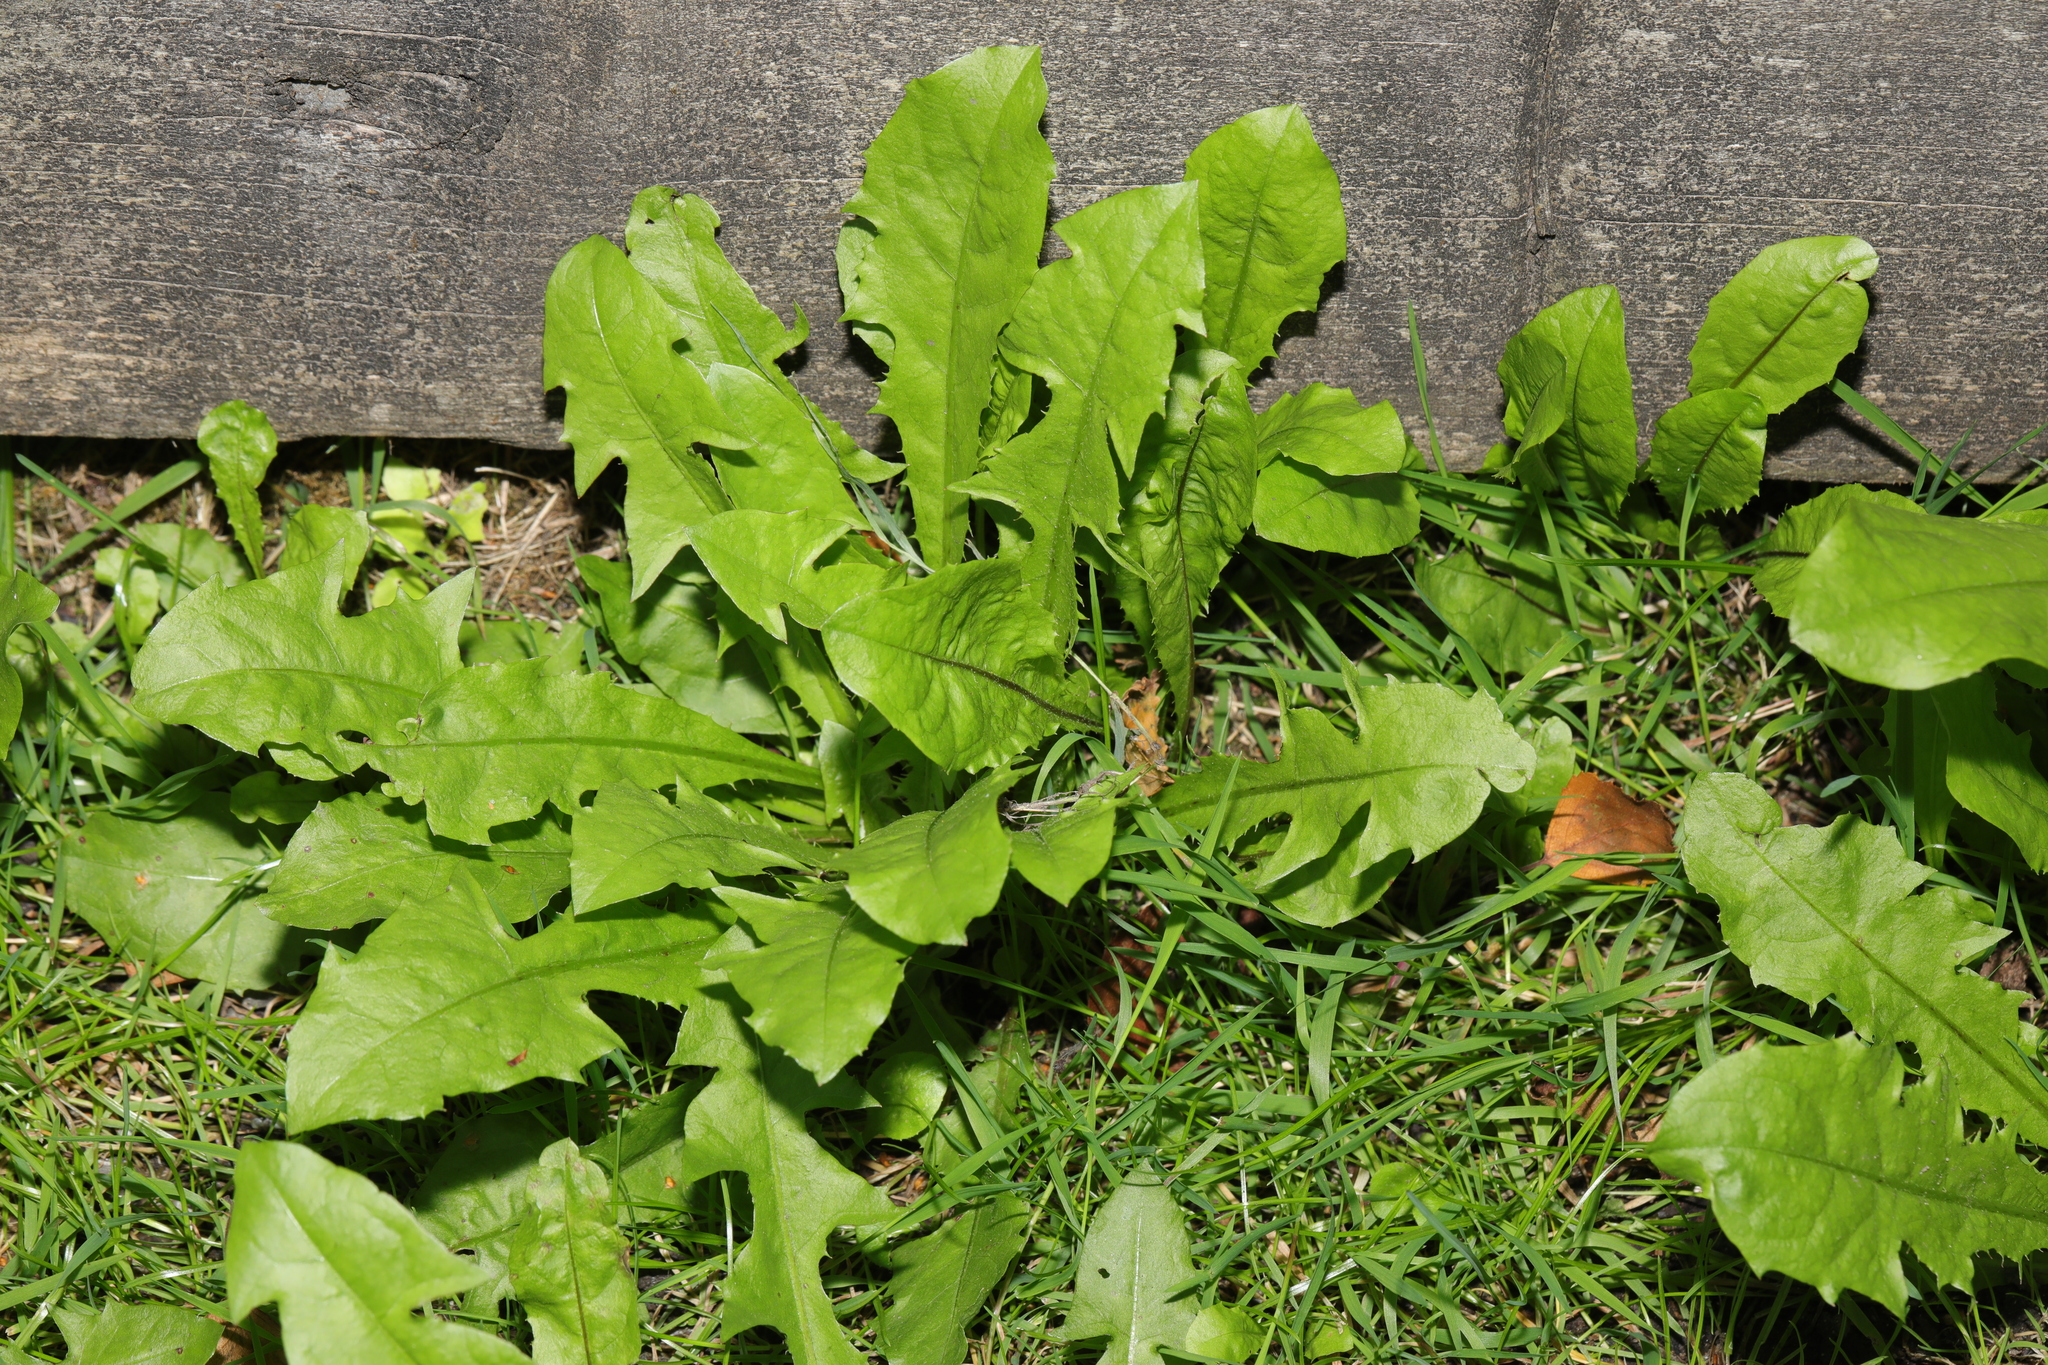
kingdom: Plantae
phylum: Tracheophyta
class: Magnoliopsida
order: Asterales
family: Asteraceae
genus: Taraxacum
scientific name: Taraxacum officinale
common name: Common dandelion
